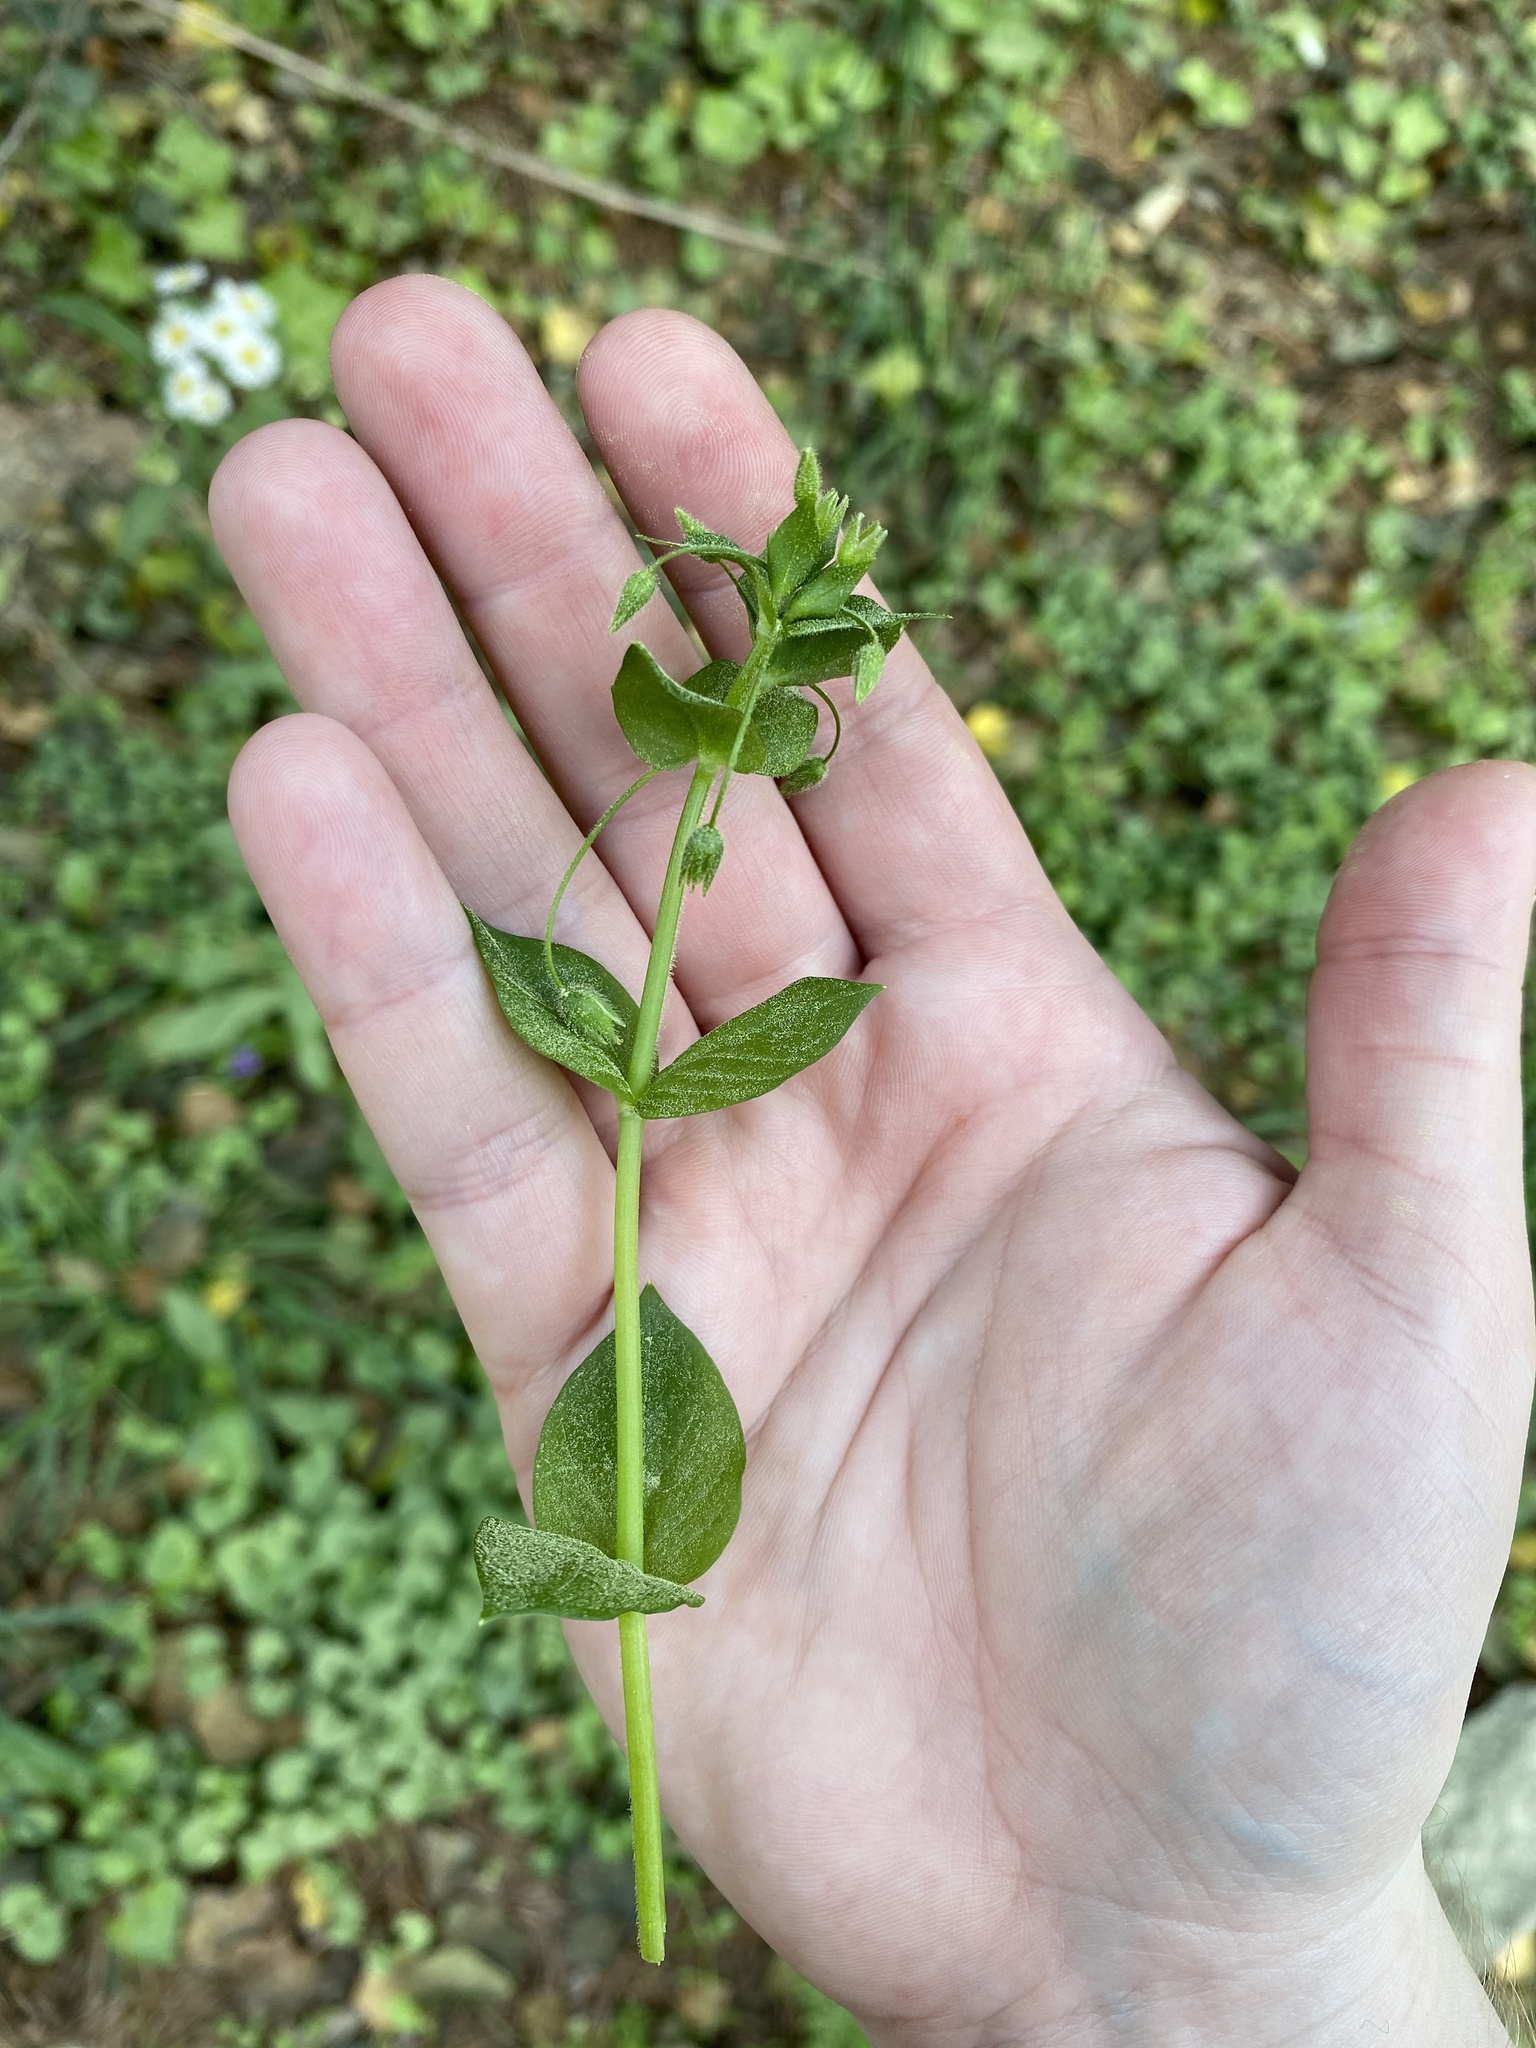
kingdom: Plantae
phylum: Tracheophyta
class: Magnoliopsida
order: Caryophyllales
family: Caryophyllaceae
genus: Stellaria
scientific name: Stellaria media
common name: Common chickweed
